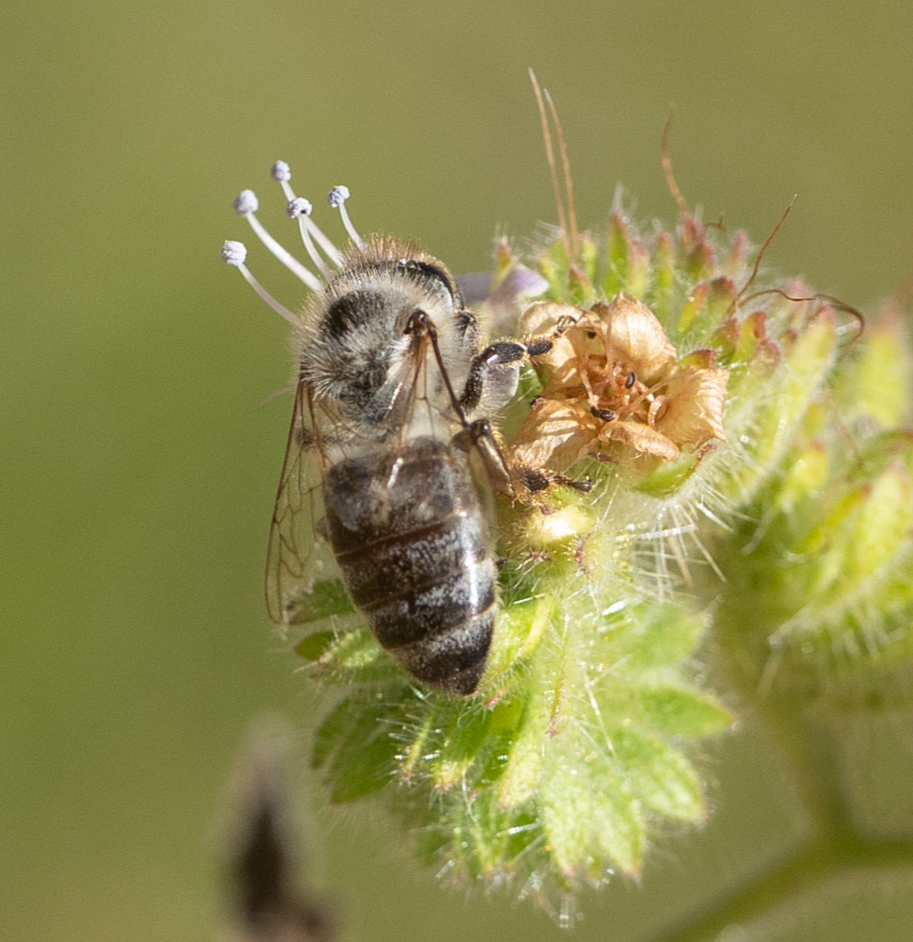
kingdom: Animalia
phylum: Arthropoda
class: Insecta
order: Hymenoptera
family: Apidae
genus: Apis
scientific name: Apis mellifera
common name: Honey bee
